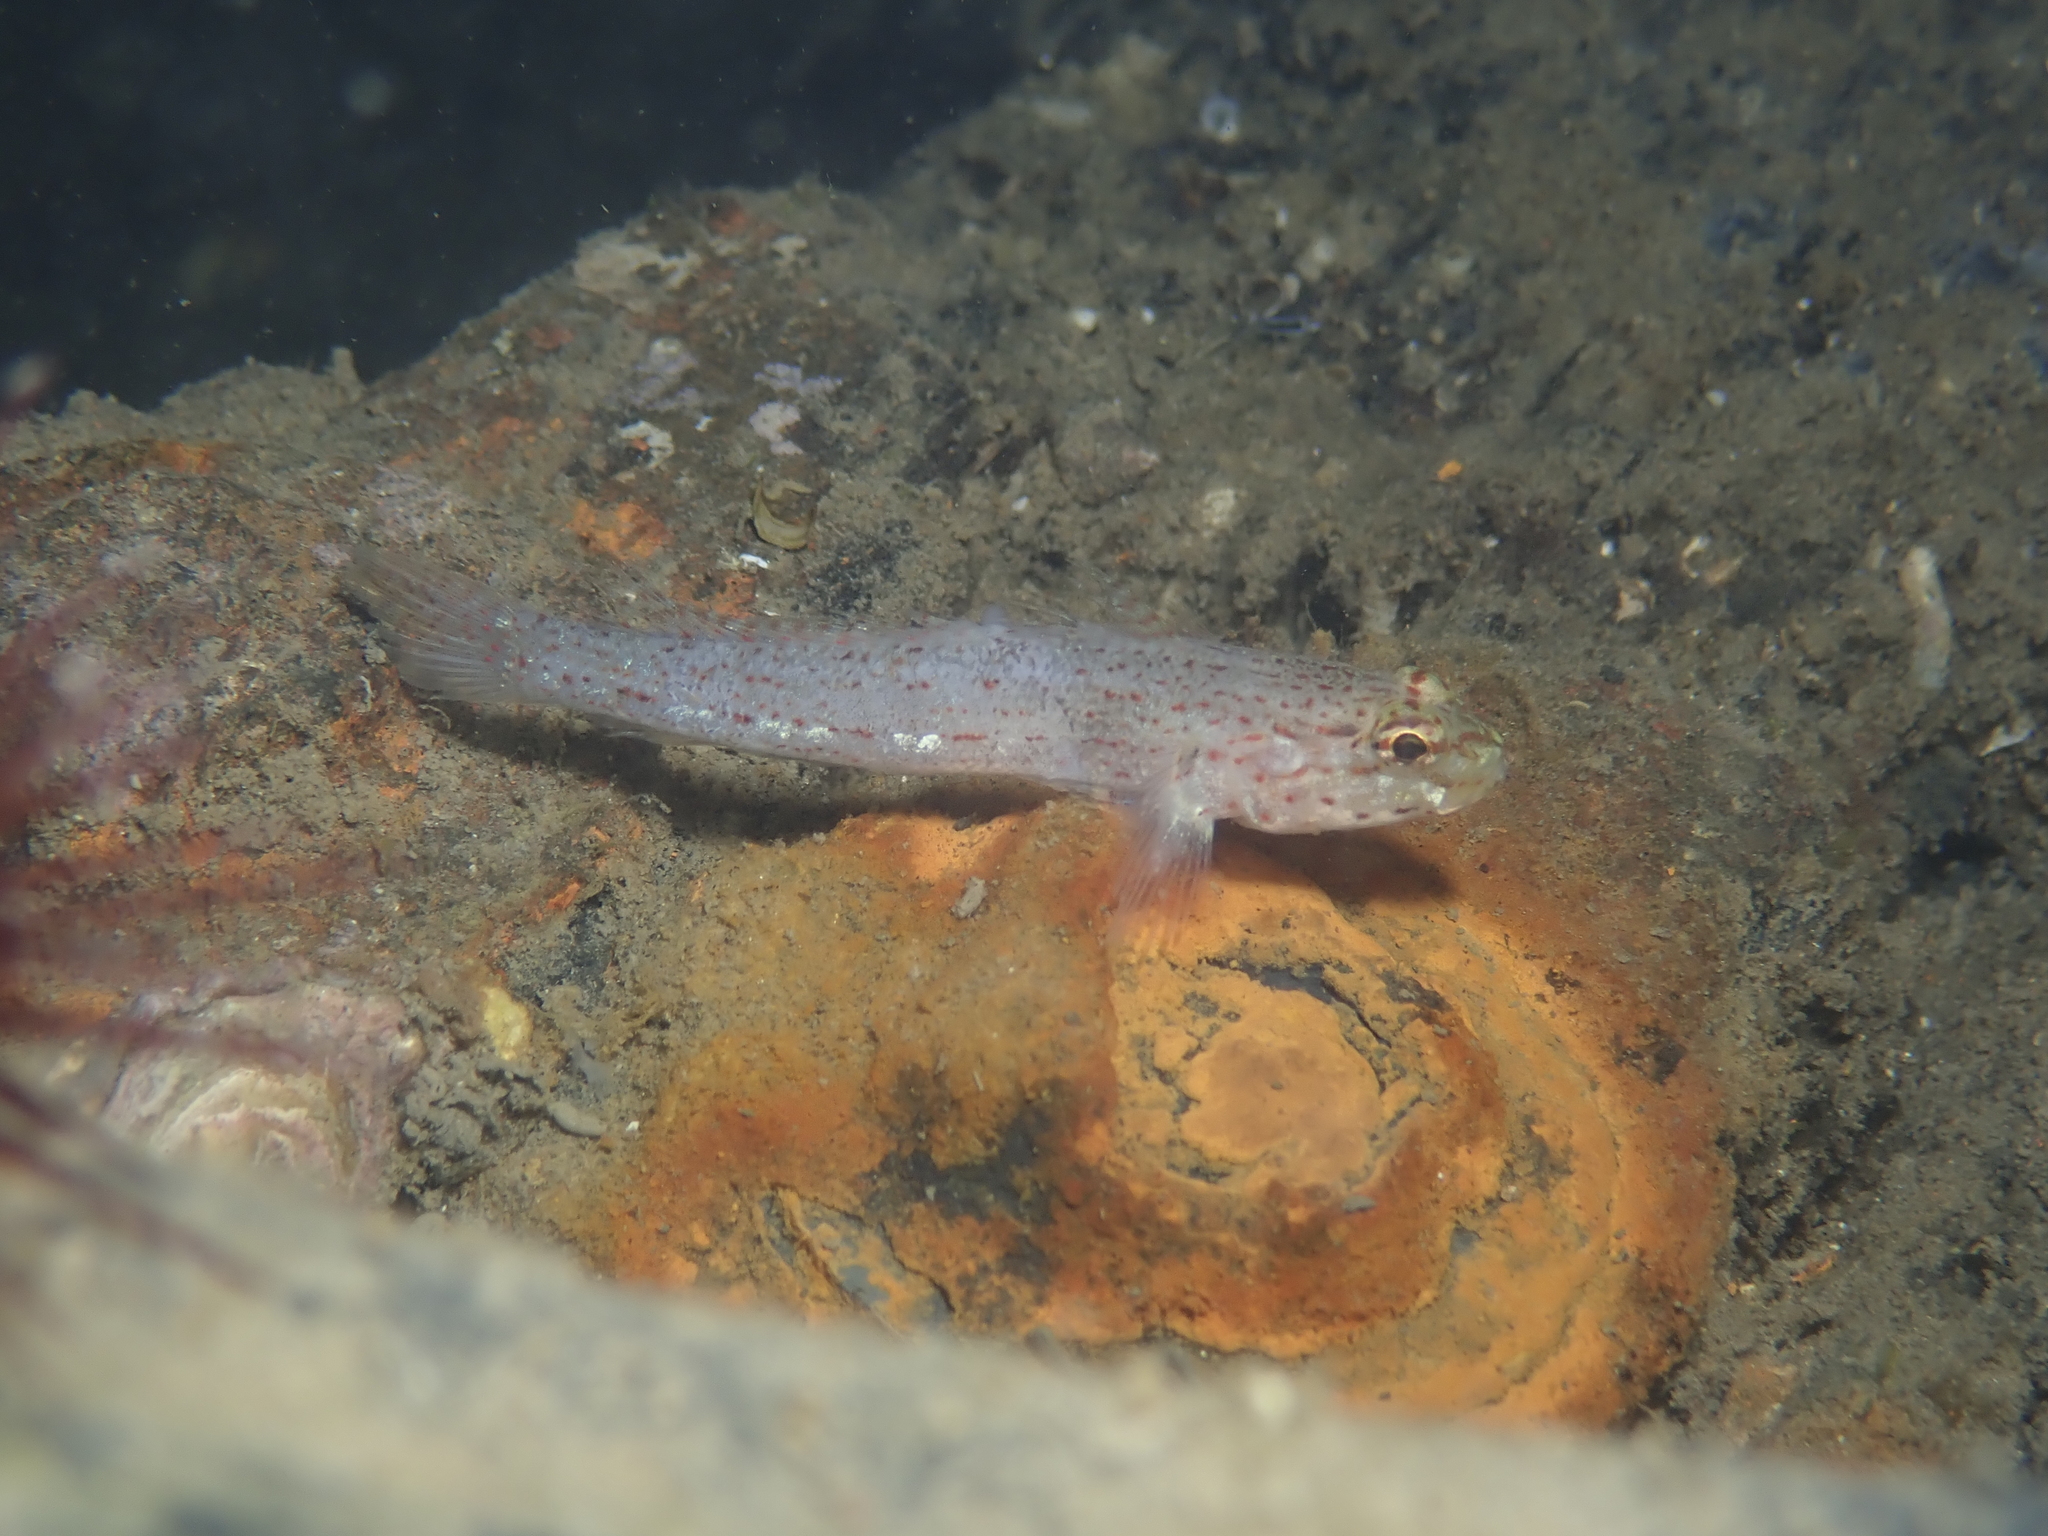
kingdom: Animalia
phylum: Chordata
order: Perciformes
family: Gobiidae
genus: Gobius
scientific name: Gobius xanthocephalus
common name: Golden goby
